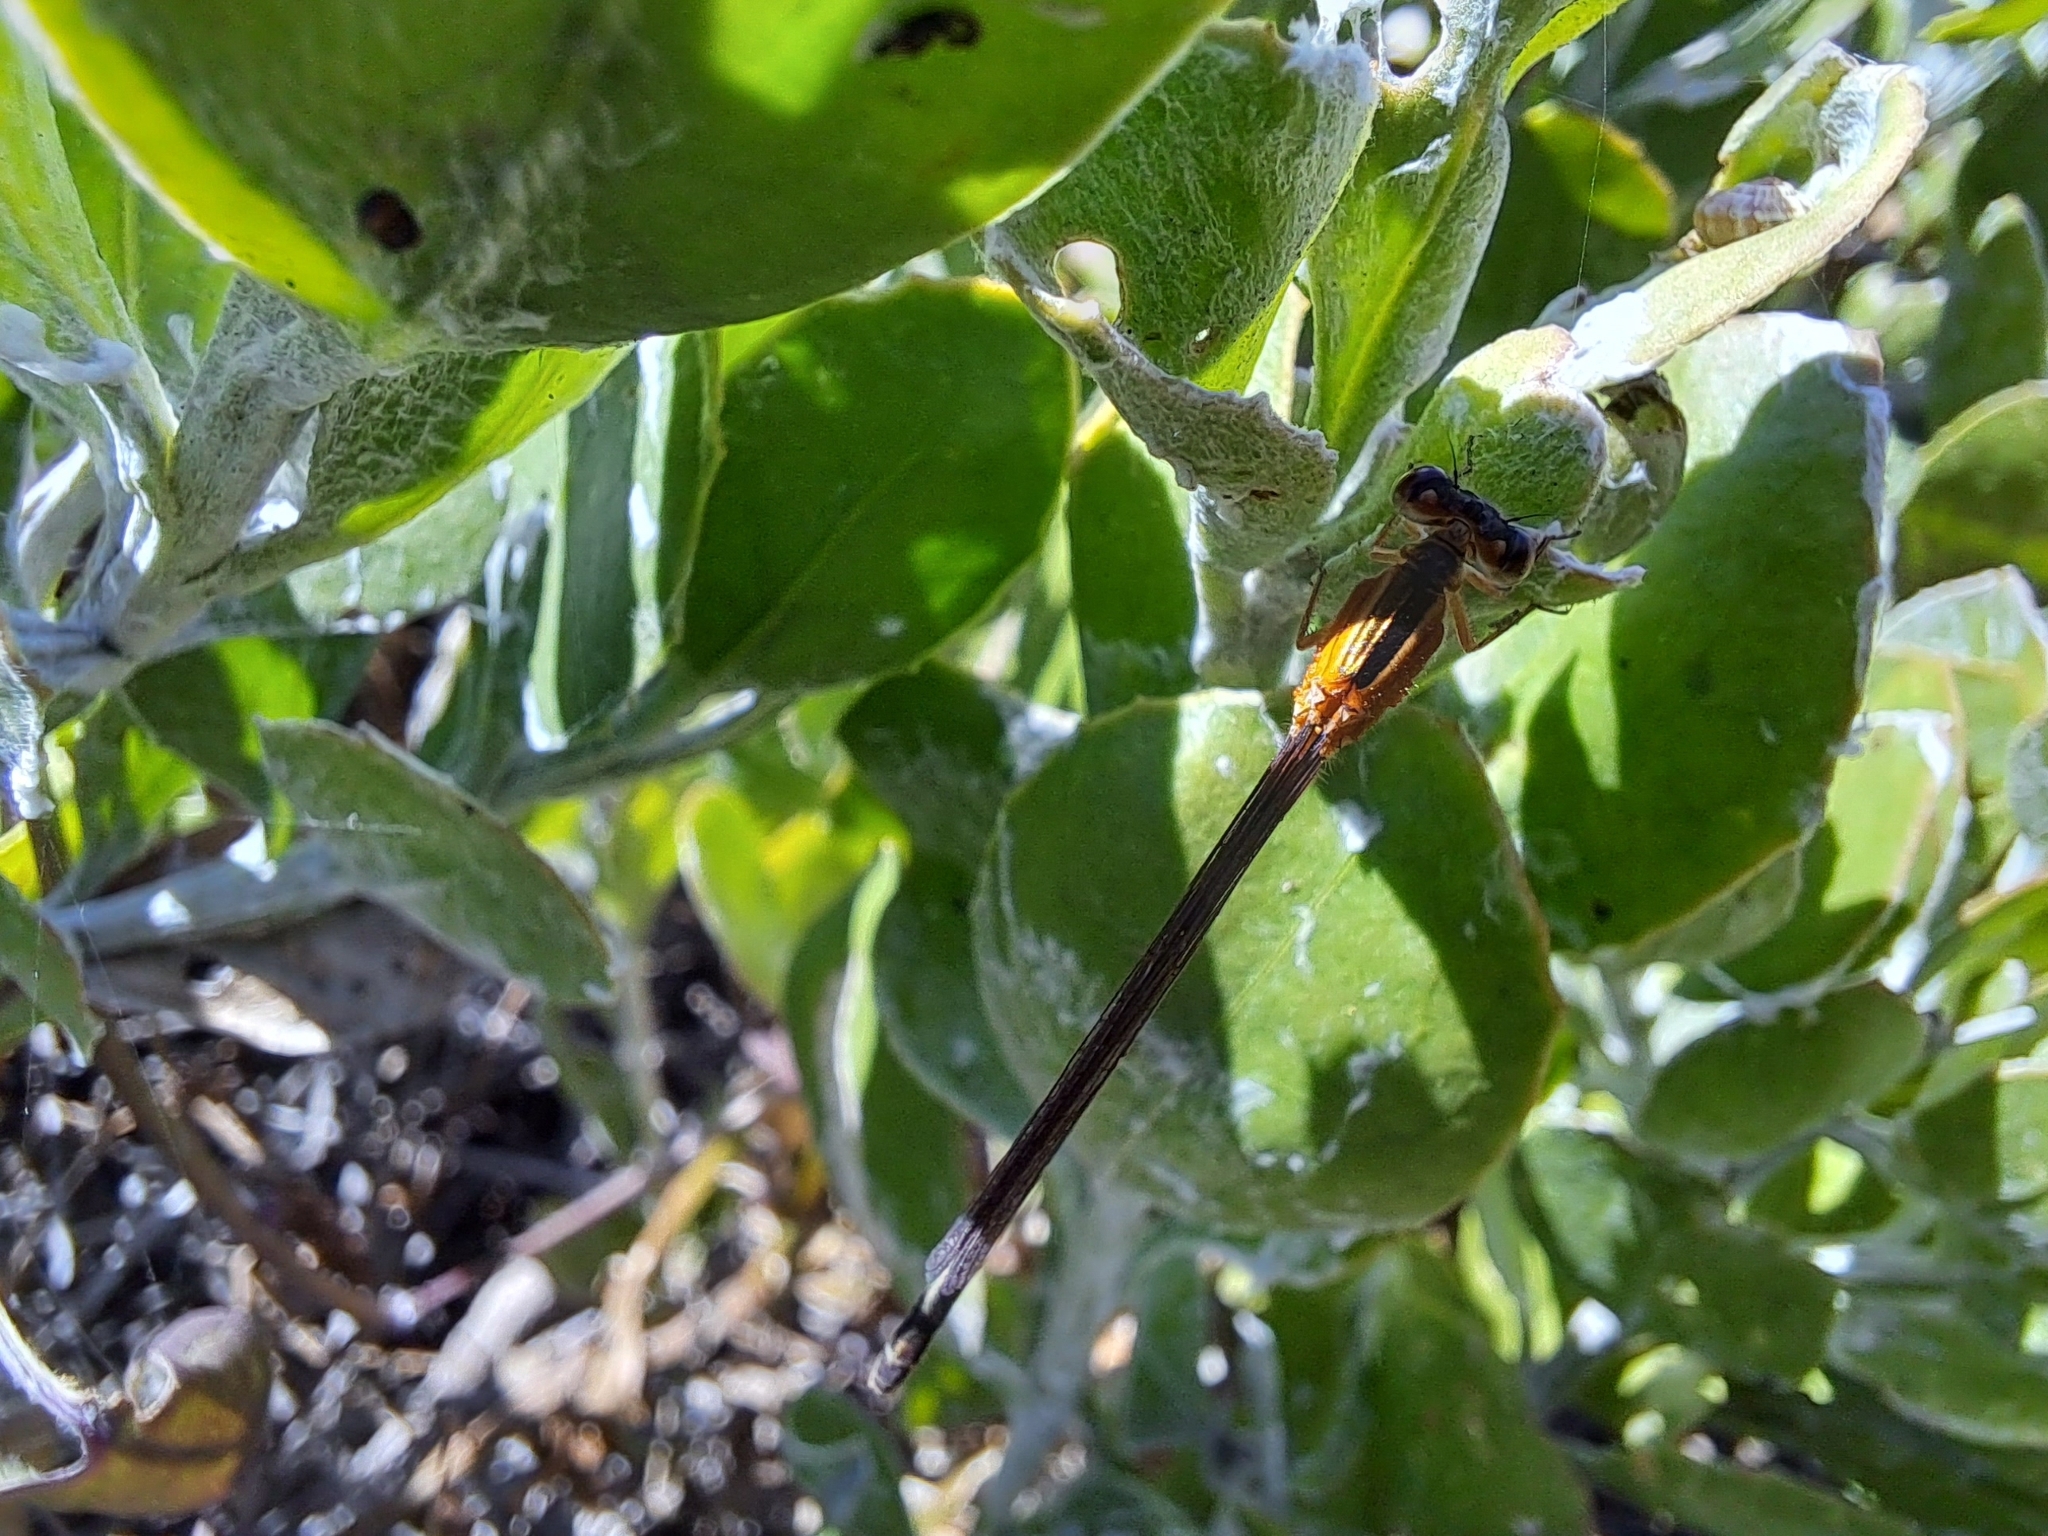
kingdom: Animalia
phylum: Arthropoda
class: Insecta
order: Odonata
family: Coenagrionidae
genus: Ischnura
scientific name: Ischnura senegalensis
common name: Tropical bluetail
